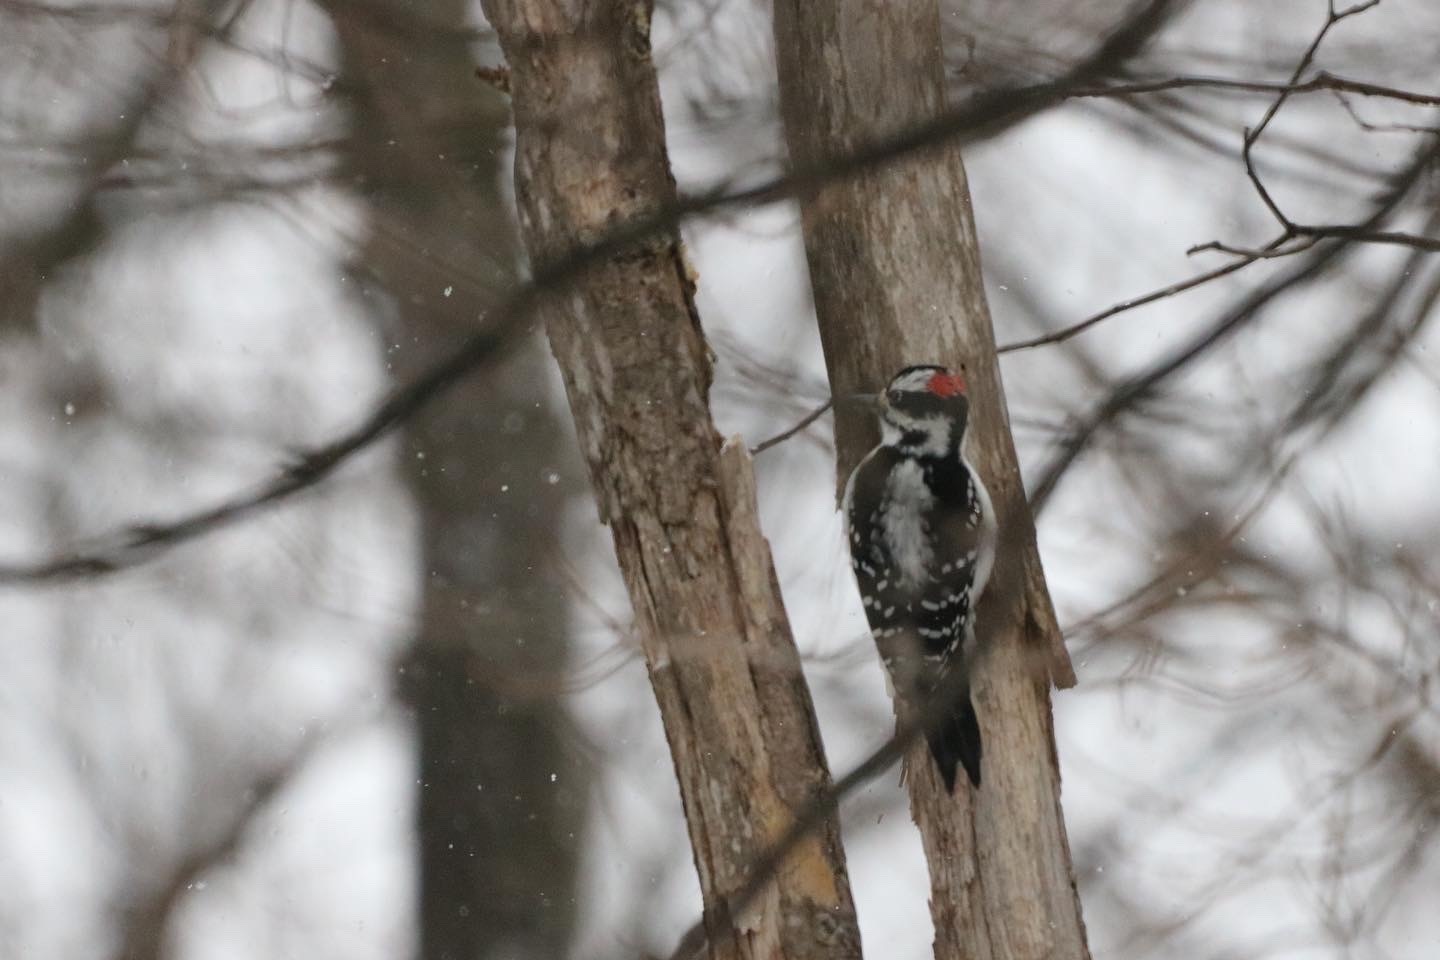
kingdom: Animalia
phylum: Chordata
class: Aves
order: Piciformes
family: Picidae
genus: Leuconotopicus
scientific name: Leuconotopicus villosus
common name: Hairy woodpecker
